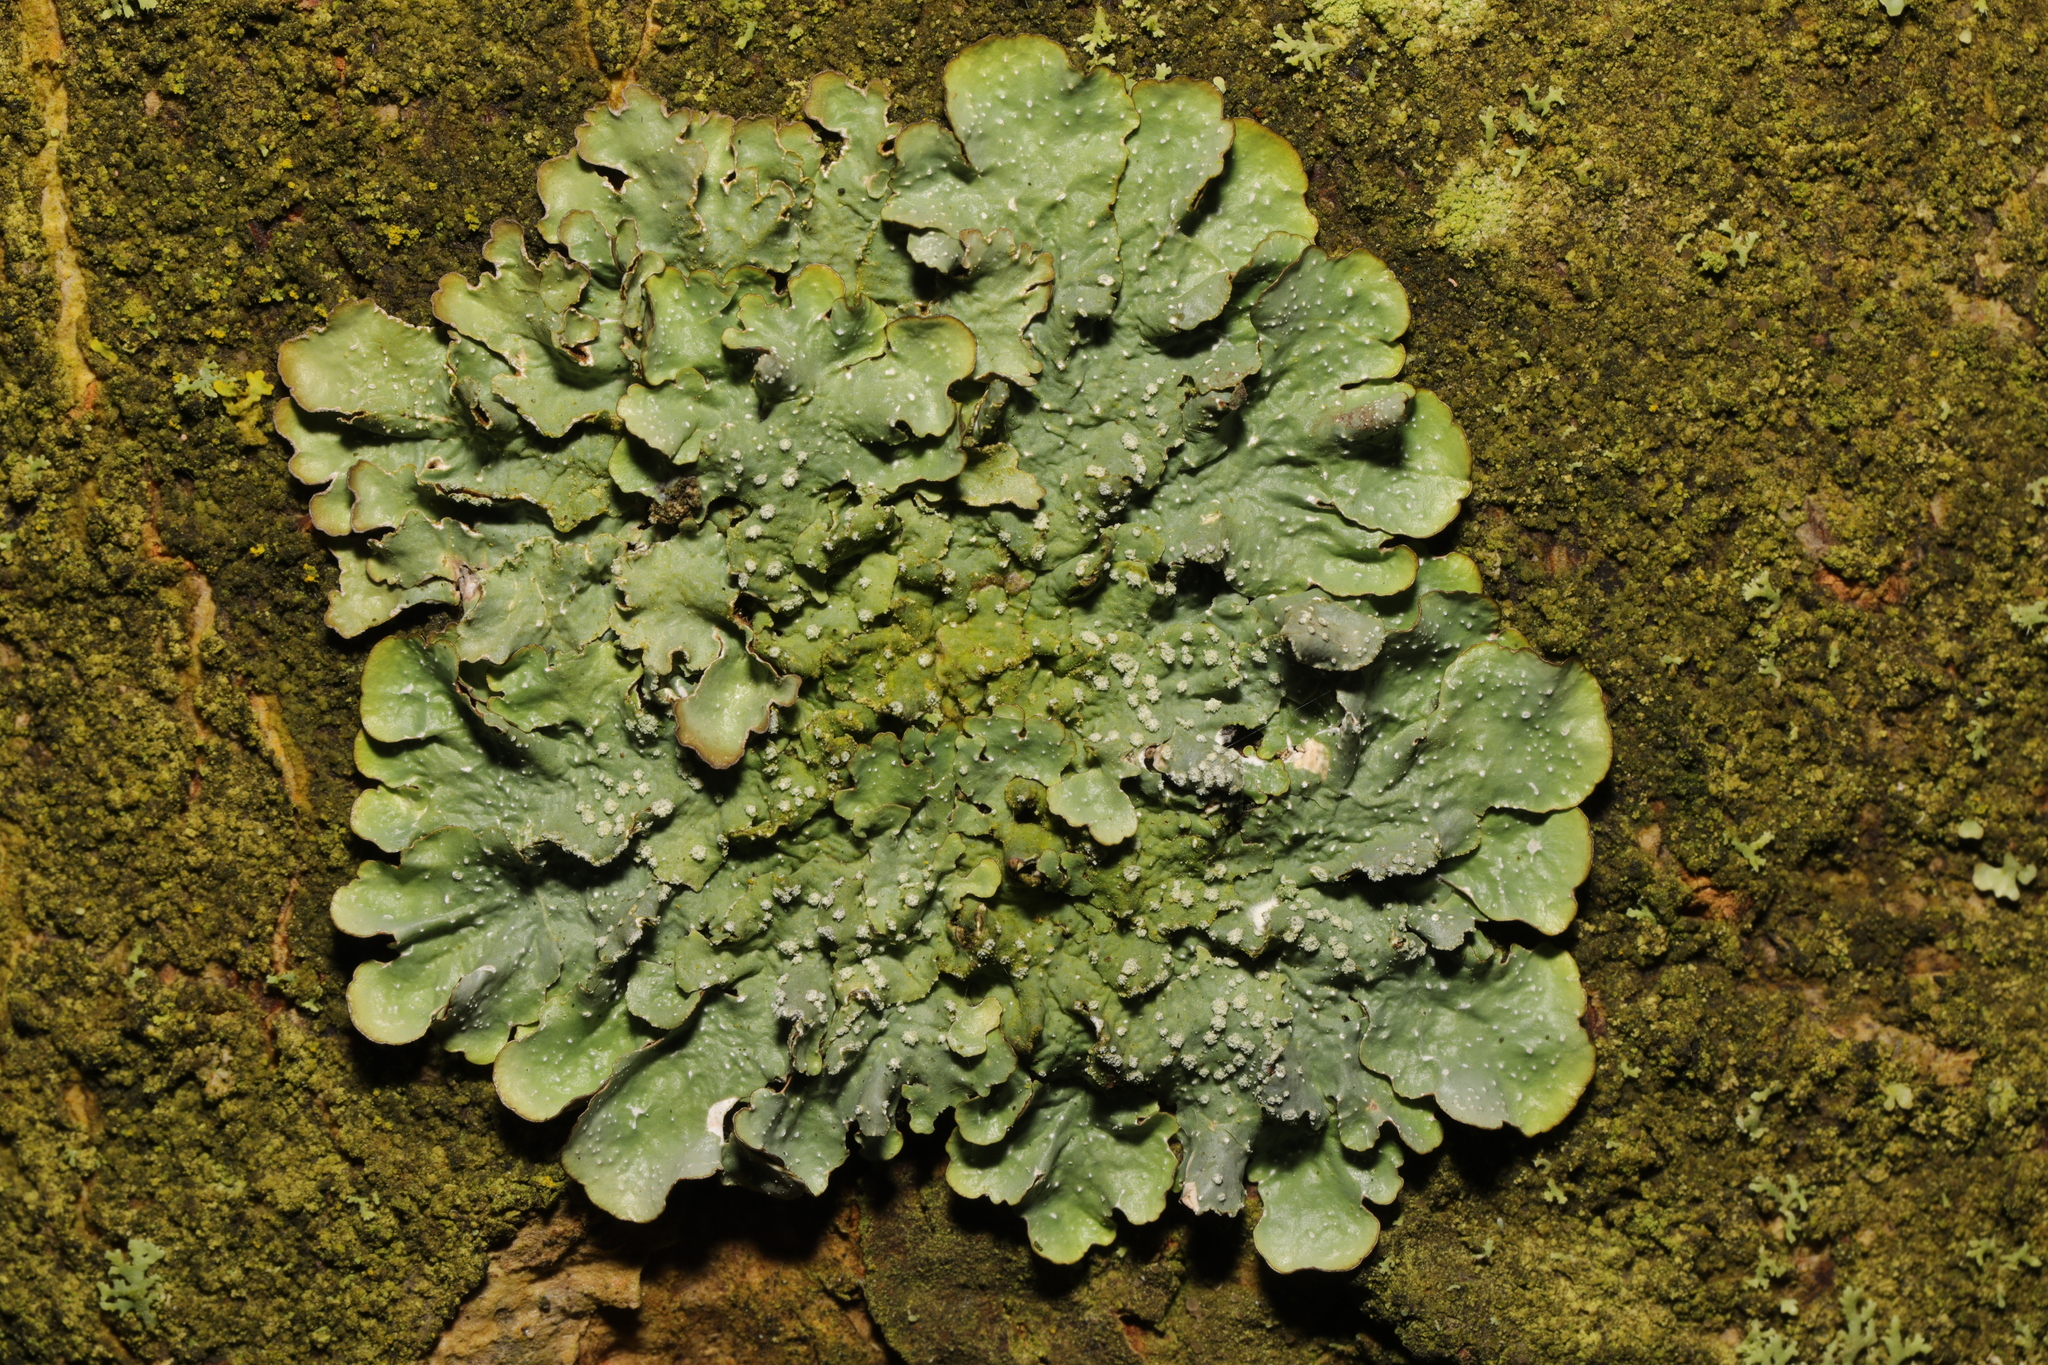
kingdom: Fungi
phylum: Ascomycota
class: Lecanoromycetes
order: Lecanorales
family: Parmeliaceae
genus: Punctelia
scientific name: Punctelia
